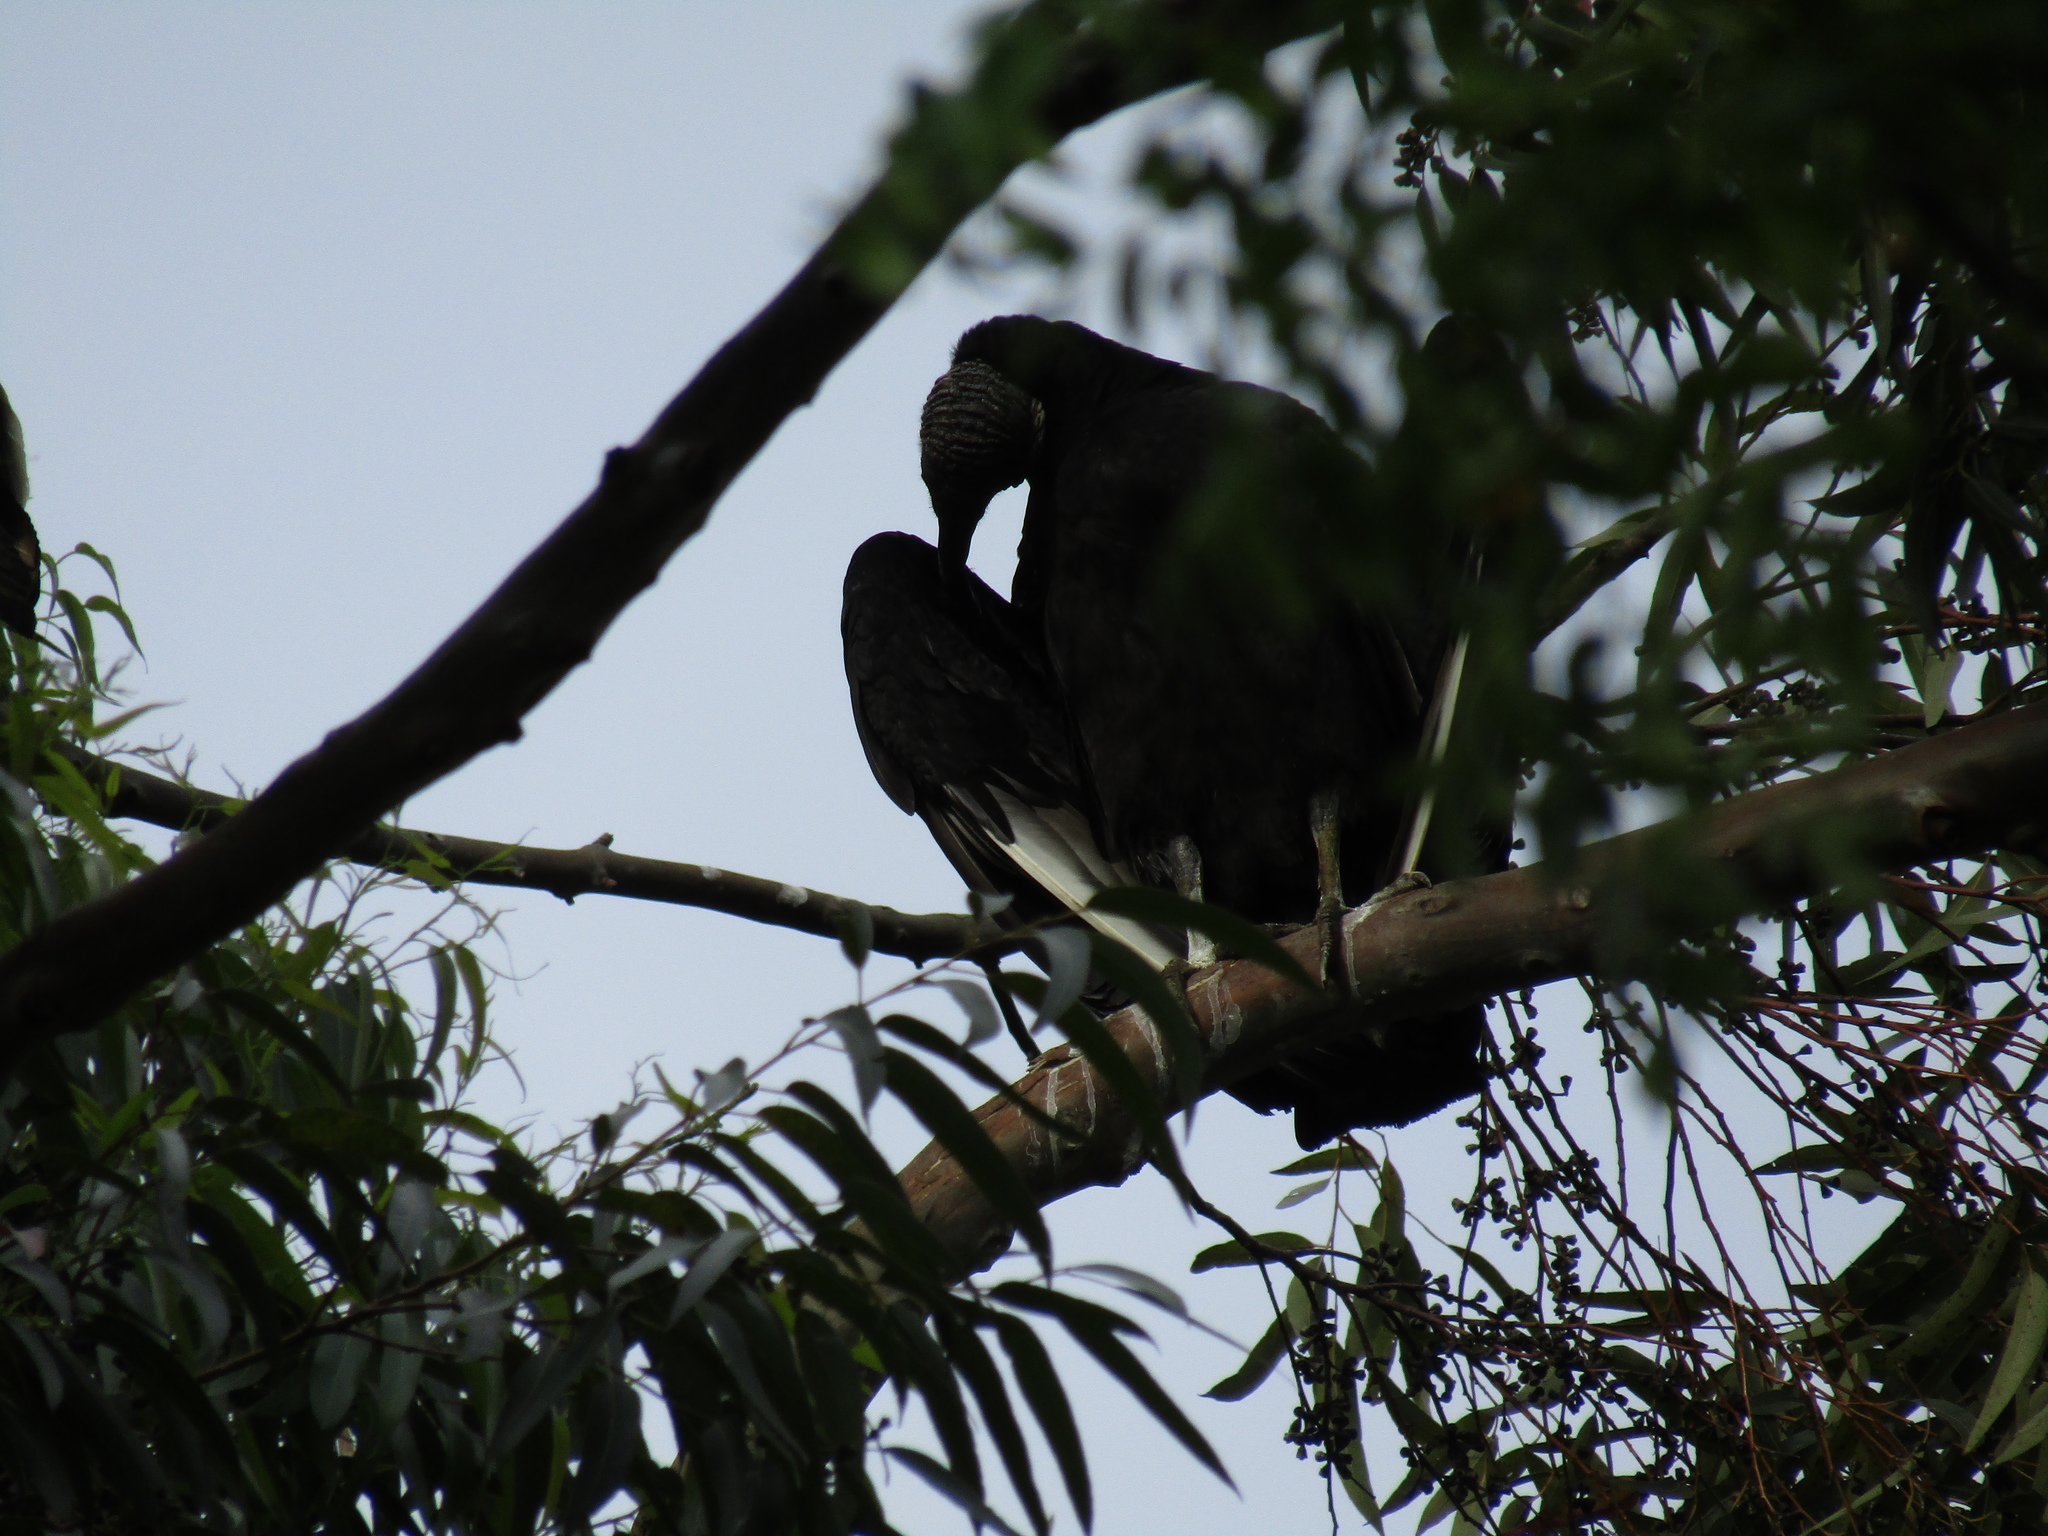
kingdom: Animalia
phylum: Chordata
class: Aves
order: Accipitriformes
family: Cathartidae
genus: Coragyps
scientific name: Coragyps atratus
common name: Black vulture
